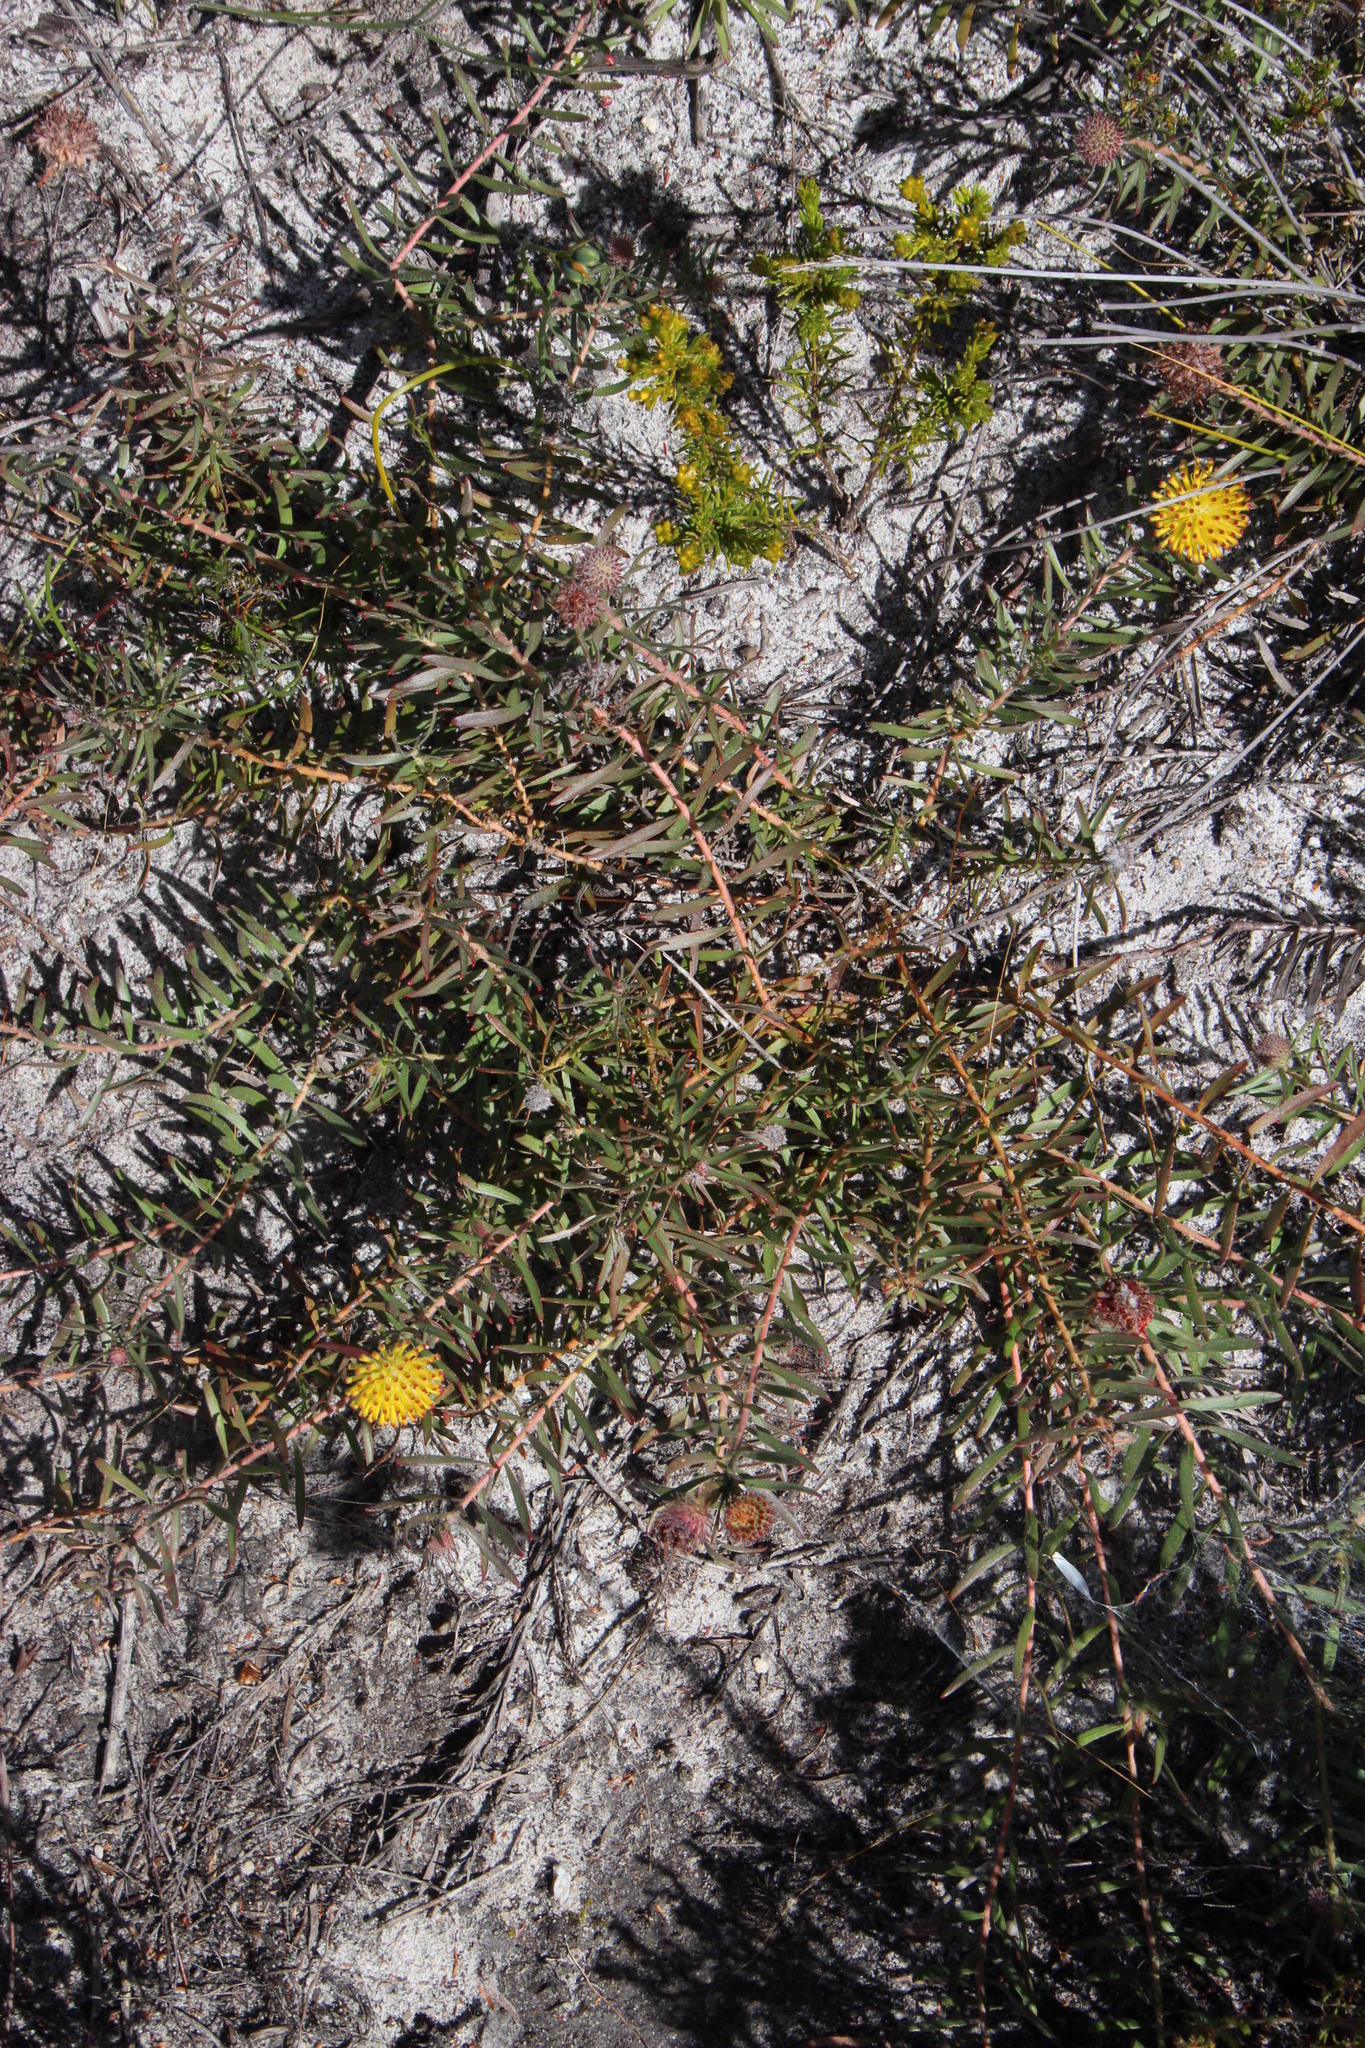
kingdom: Plantae
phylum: Tracheophyta
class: Magnoliopsida
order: Proteales
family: Proteaceae
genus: Leucospermum
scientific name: Leucospermum prostratum
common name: Yellow-trailing pincushion
